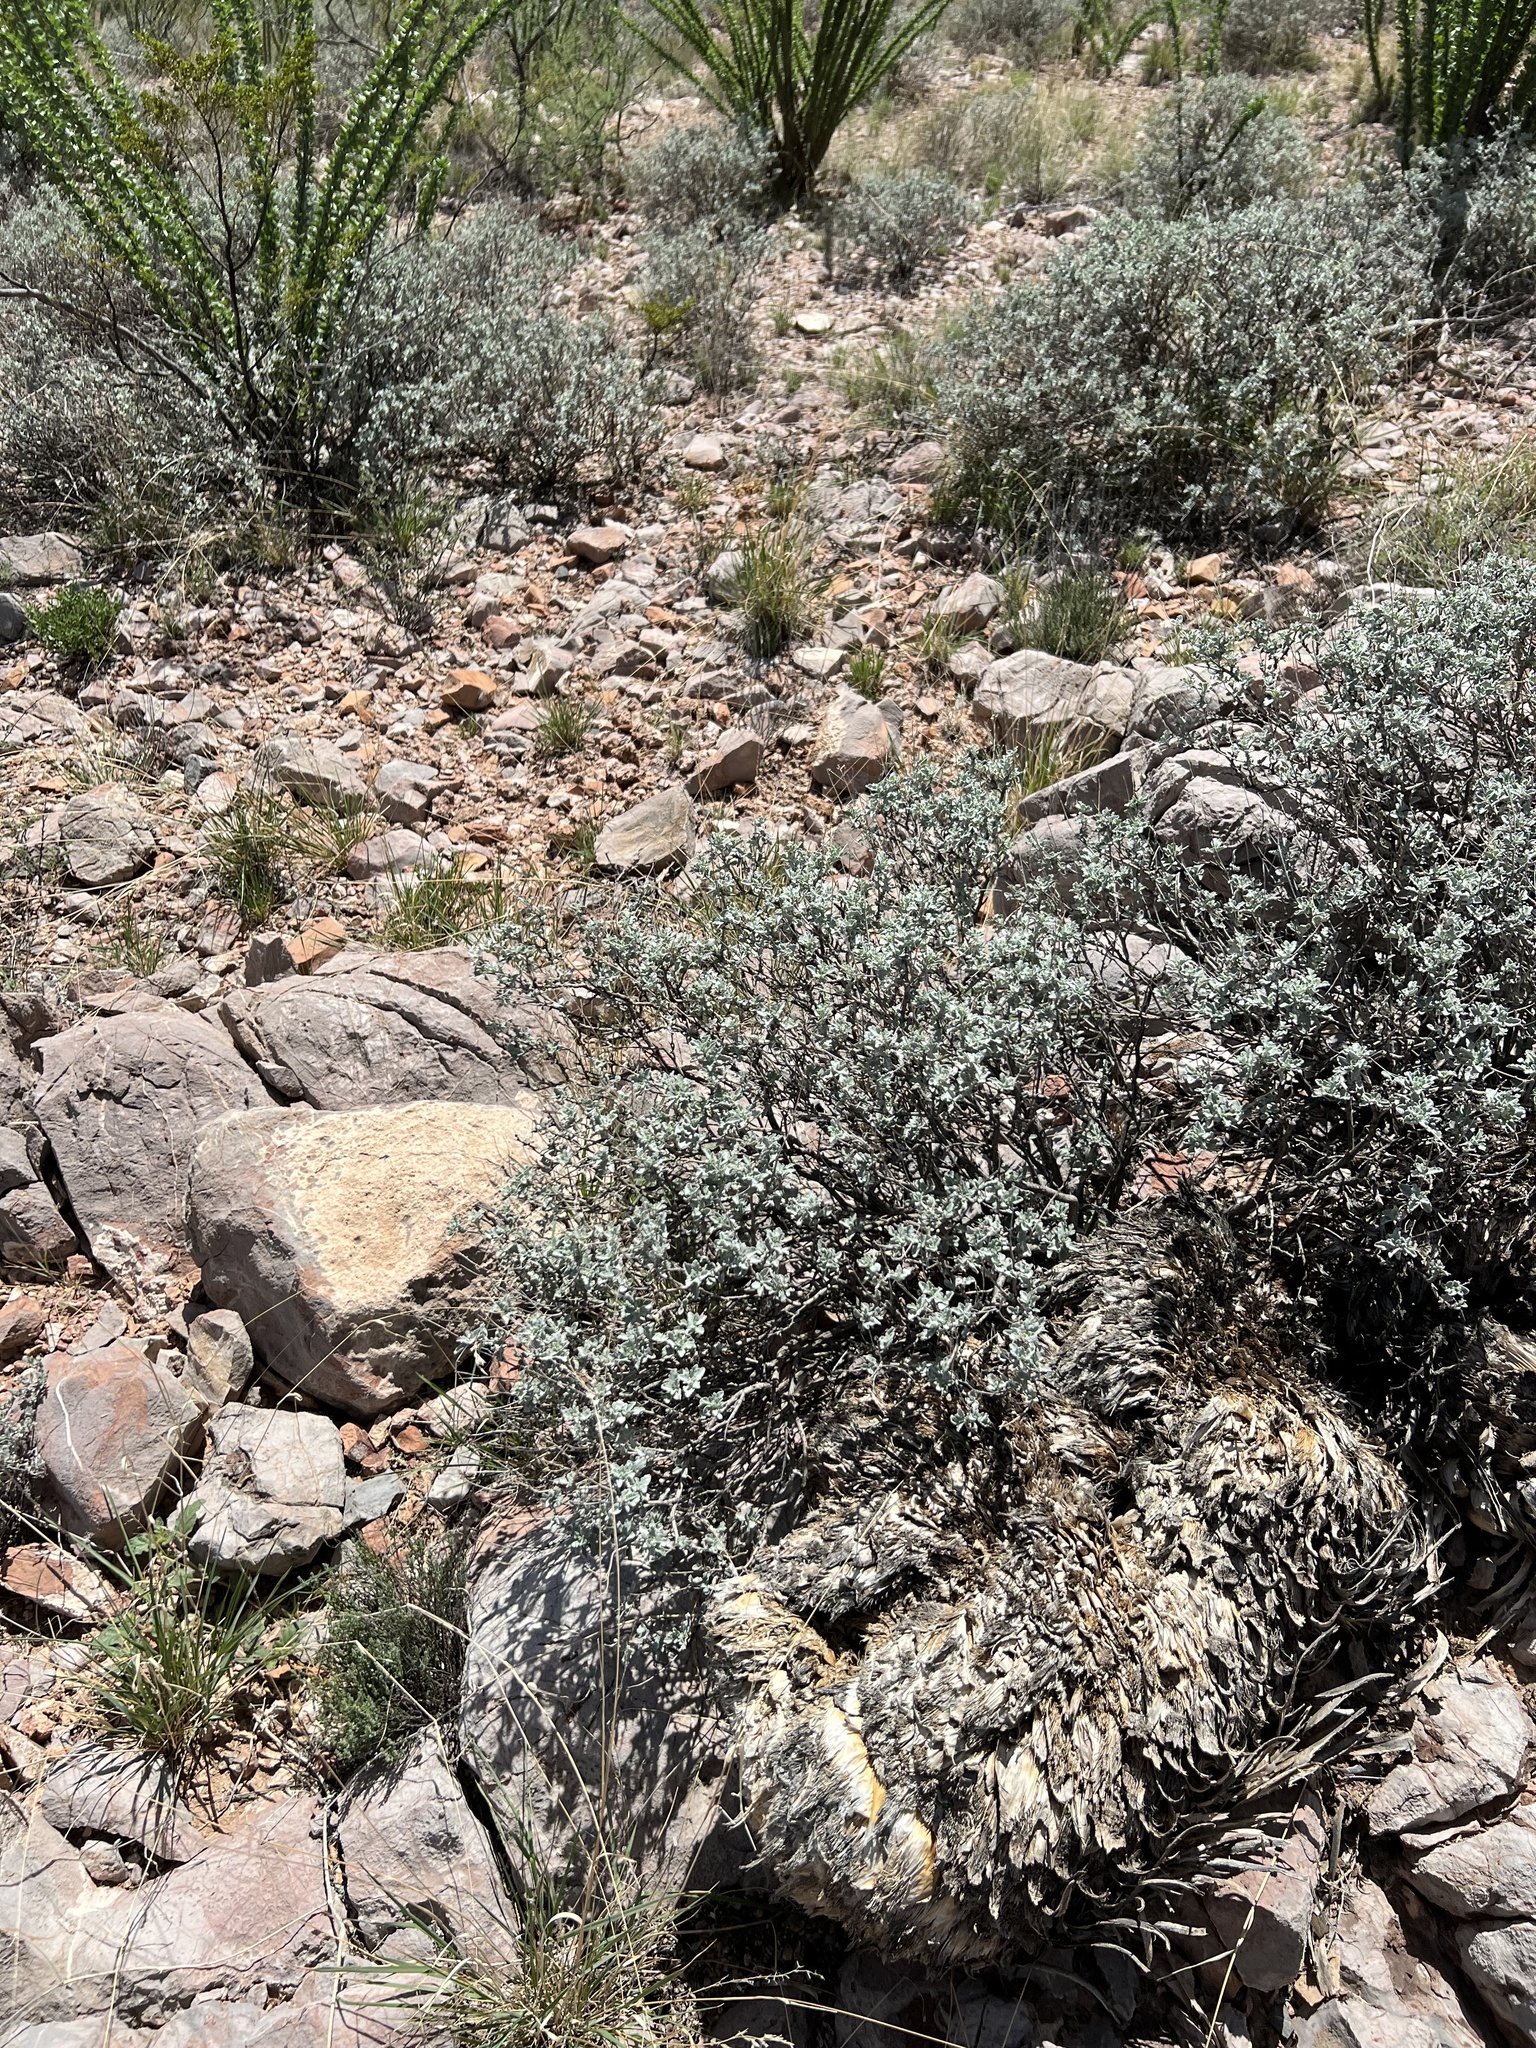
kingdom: Plantae
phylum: Tracheophyta
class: Magnoliopsida
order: Asterales
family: Asteraceae
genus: Parthenium
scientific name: Parthenium incanum
